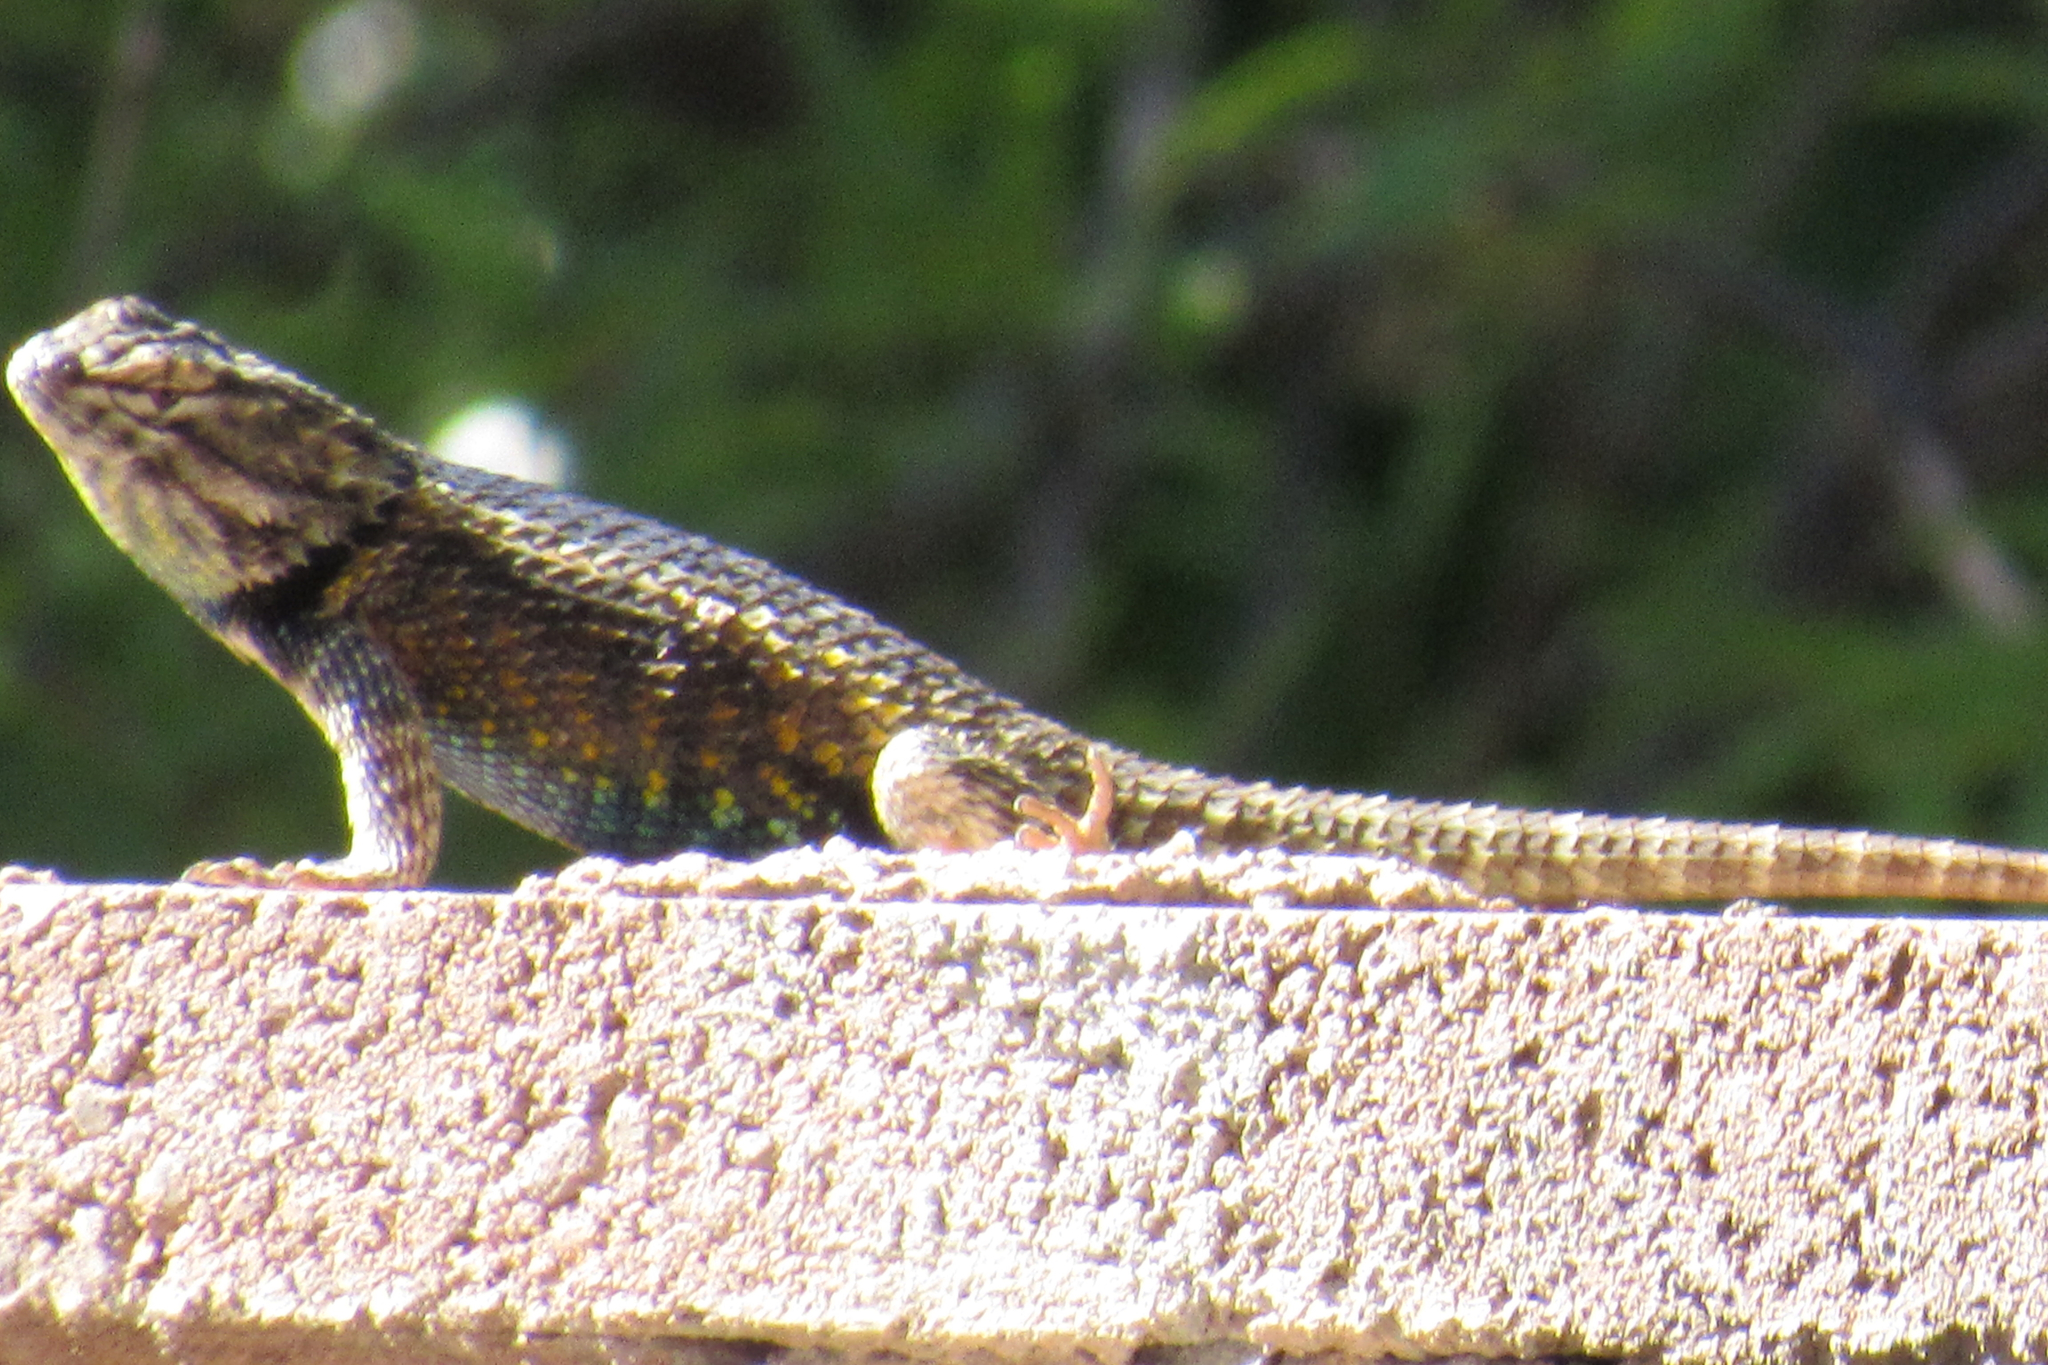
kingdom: Animalia
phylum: Chordata
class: Squamata
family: Phrynosomatidae
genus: Sceloporus
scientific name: Sceloporus magister
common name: Desert spiny lizard
